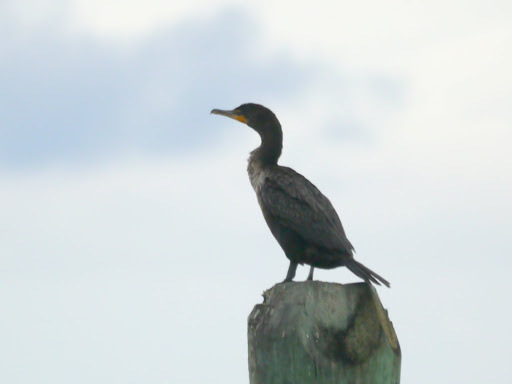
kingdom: Animalia
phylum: Chordata
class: Aves
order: Suliformes
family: Phalacrocoracidae
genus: Phalacrocorax
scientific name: Phalacrocorax auritus
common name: Double-crested cormorant
